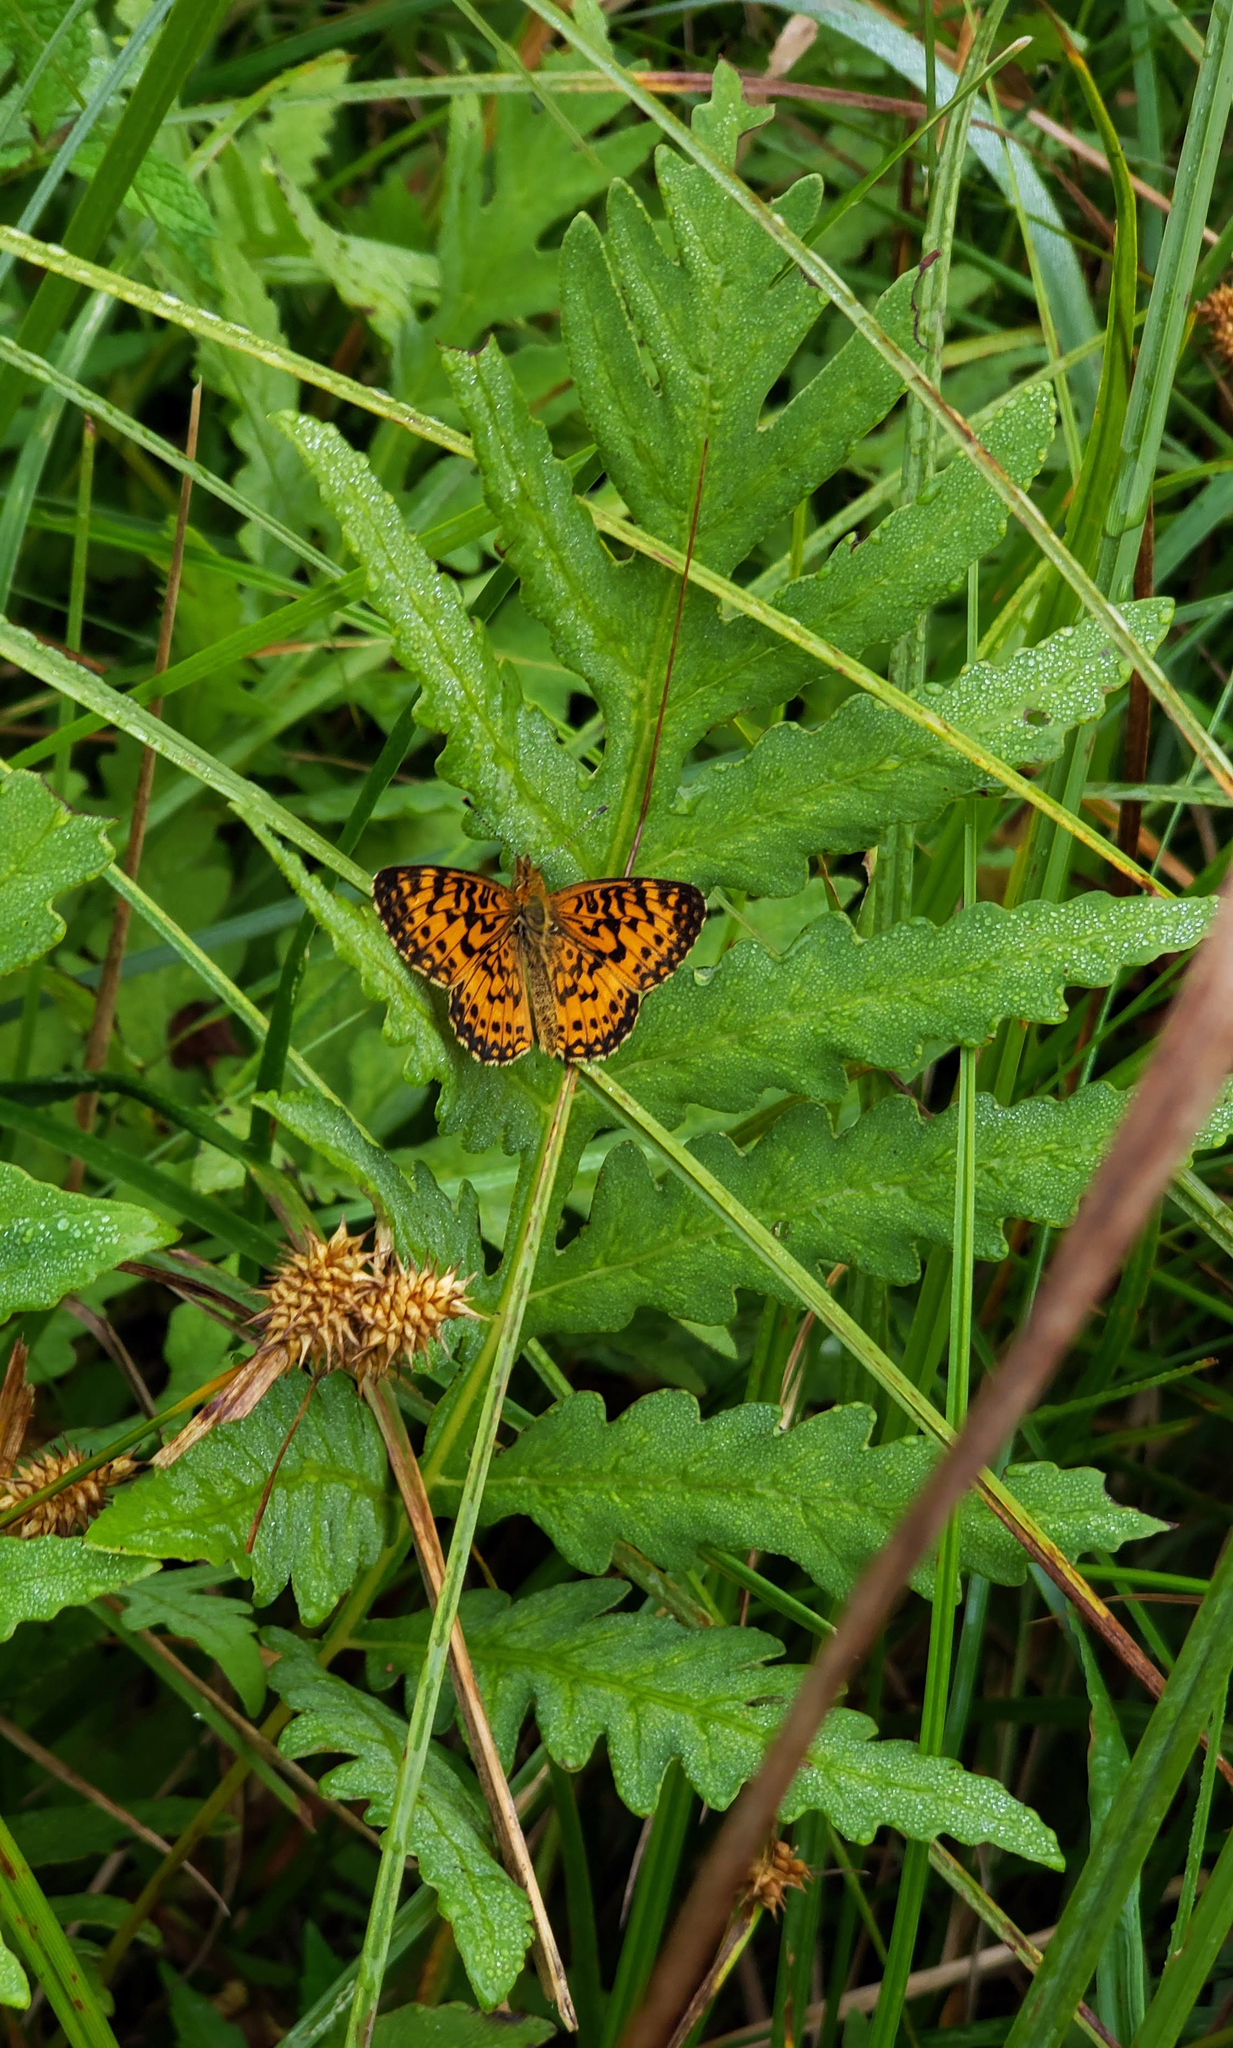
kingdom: Plantae
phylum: Tracheophyta
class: Polypodiopsida
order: Polypodiales
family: Onocleaceae
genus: Onoclea
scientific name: Onoclea sensibilis
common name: Sensitive fern
